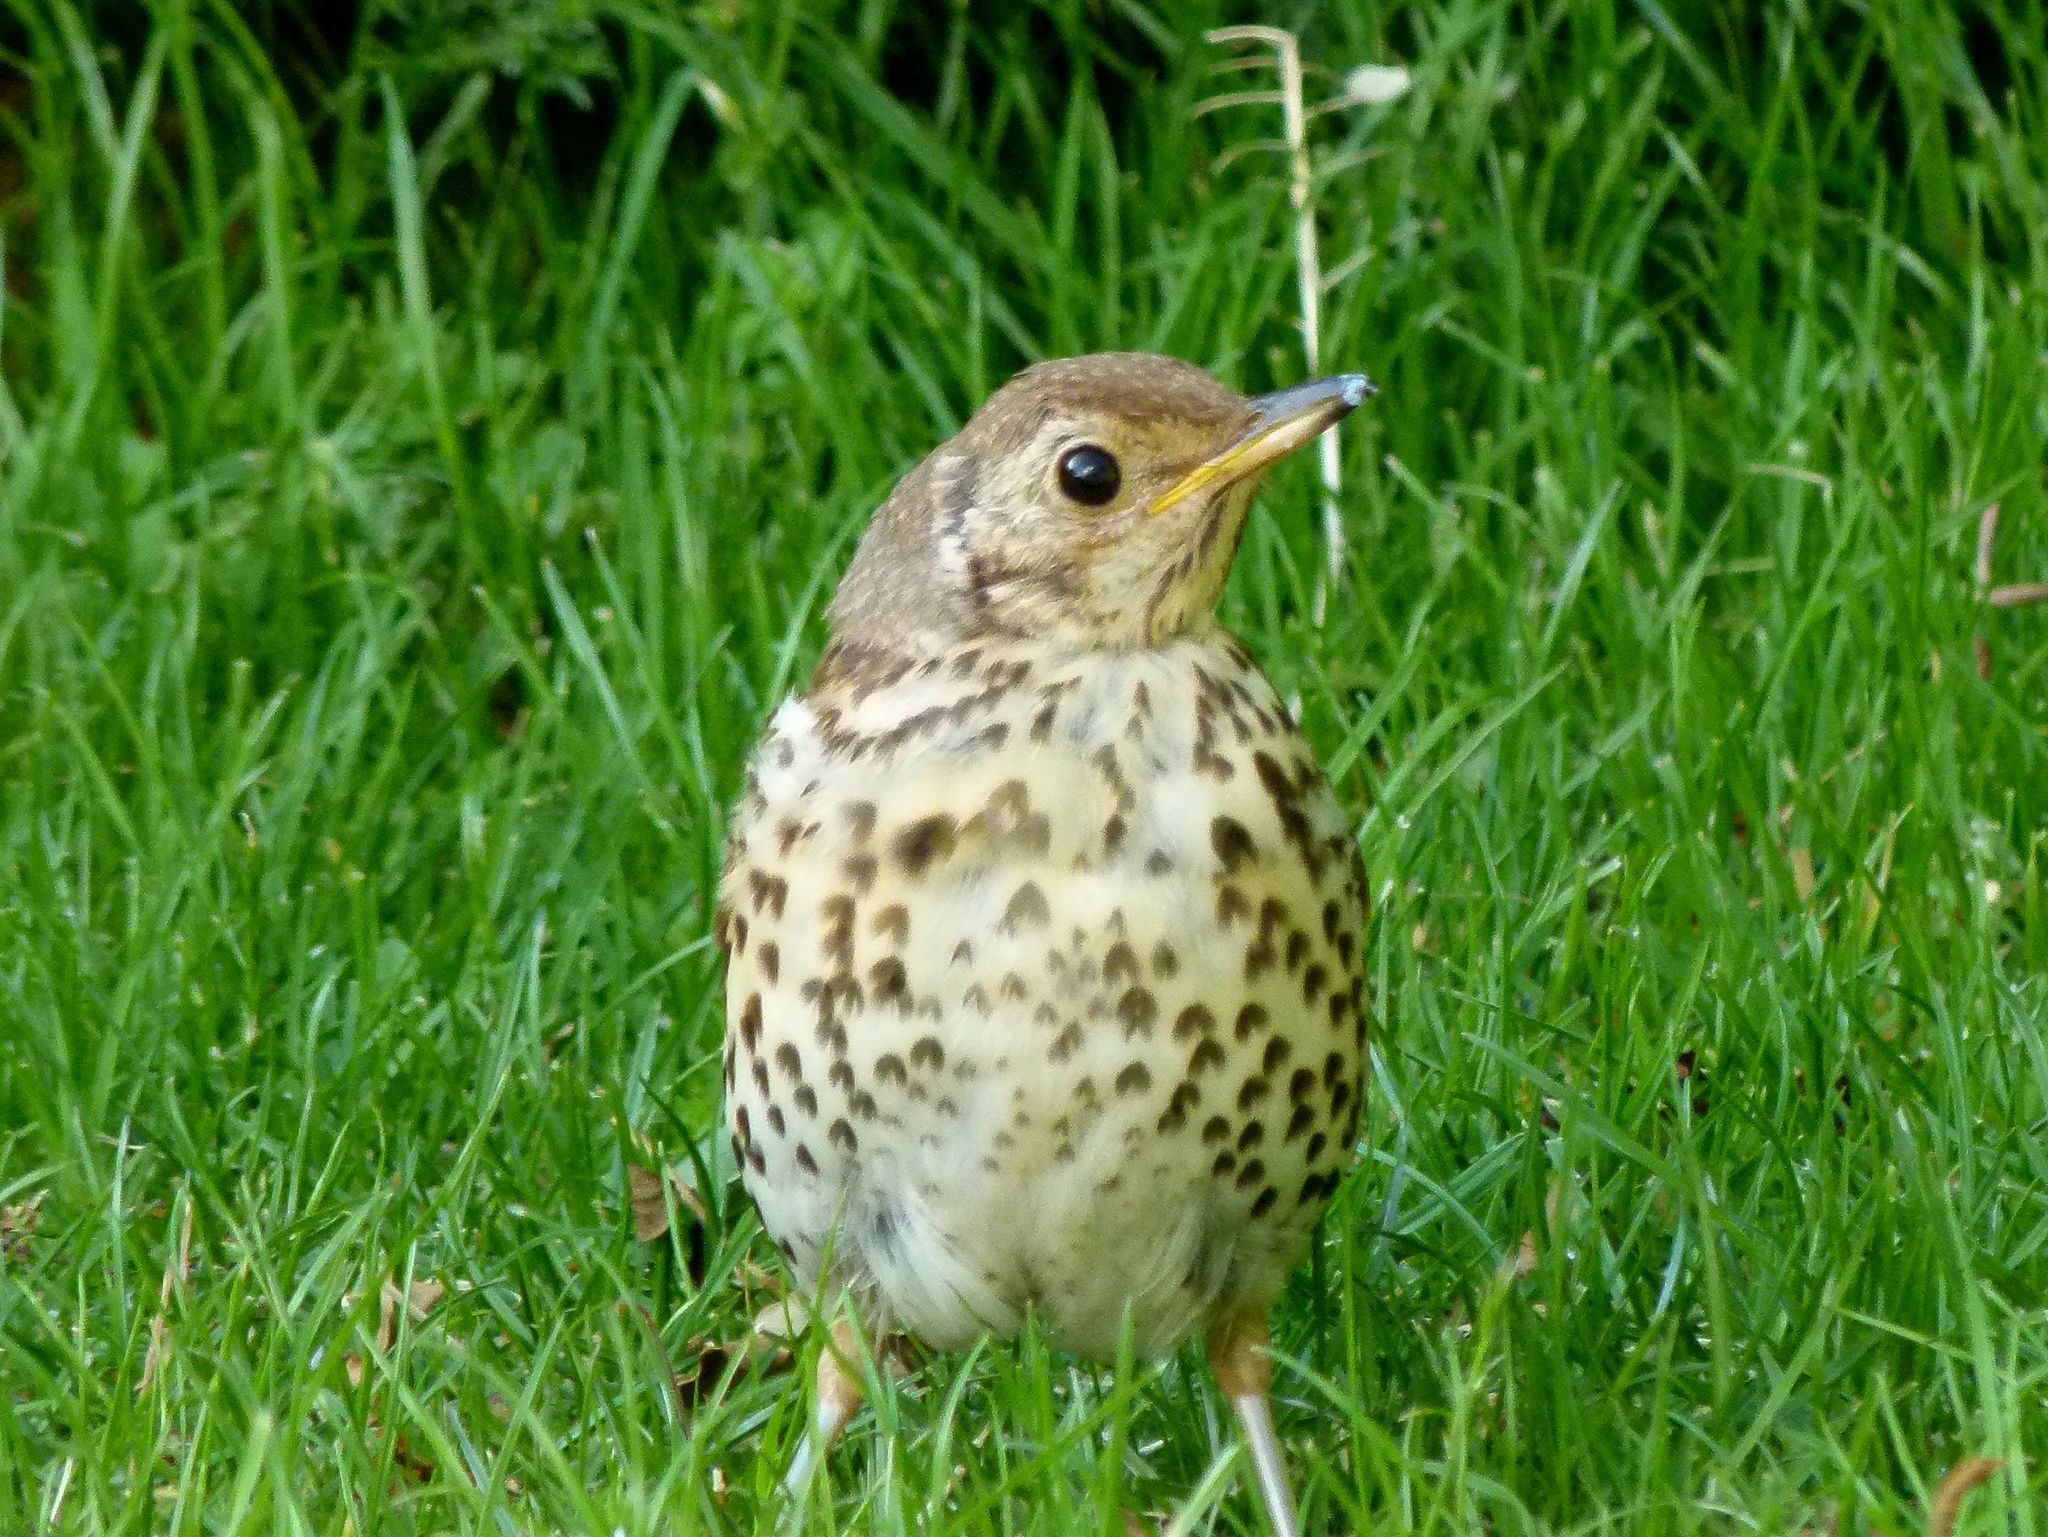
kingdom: Animalia
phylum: Chordata
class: Aves
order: Passeriformes
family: Turdidae
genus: Turdus
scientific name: Turdus philomelos
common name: Song thrush
